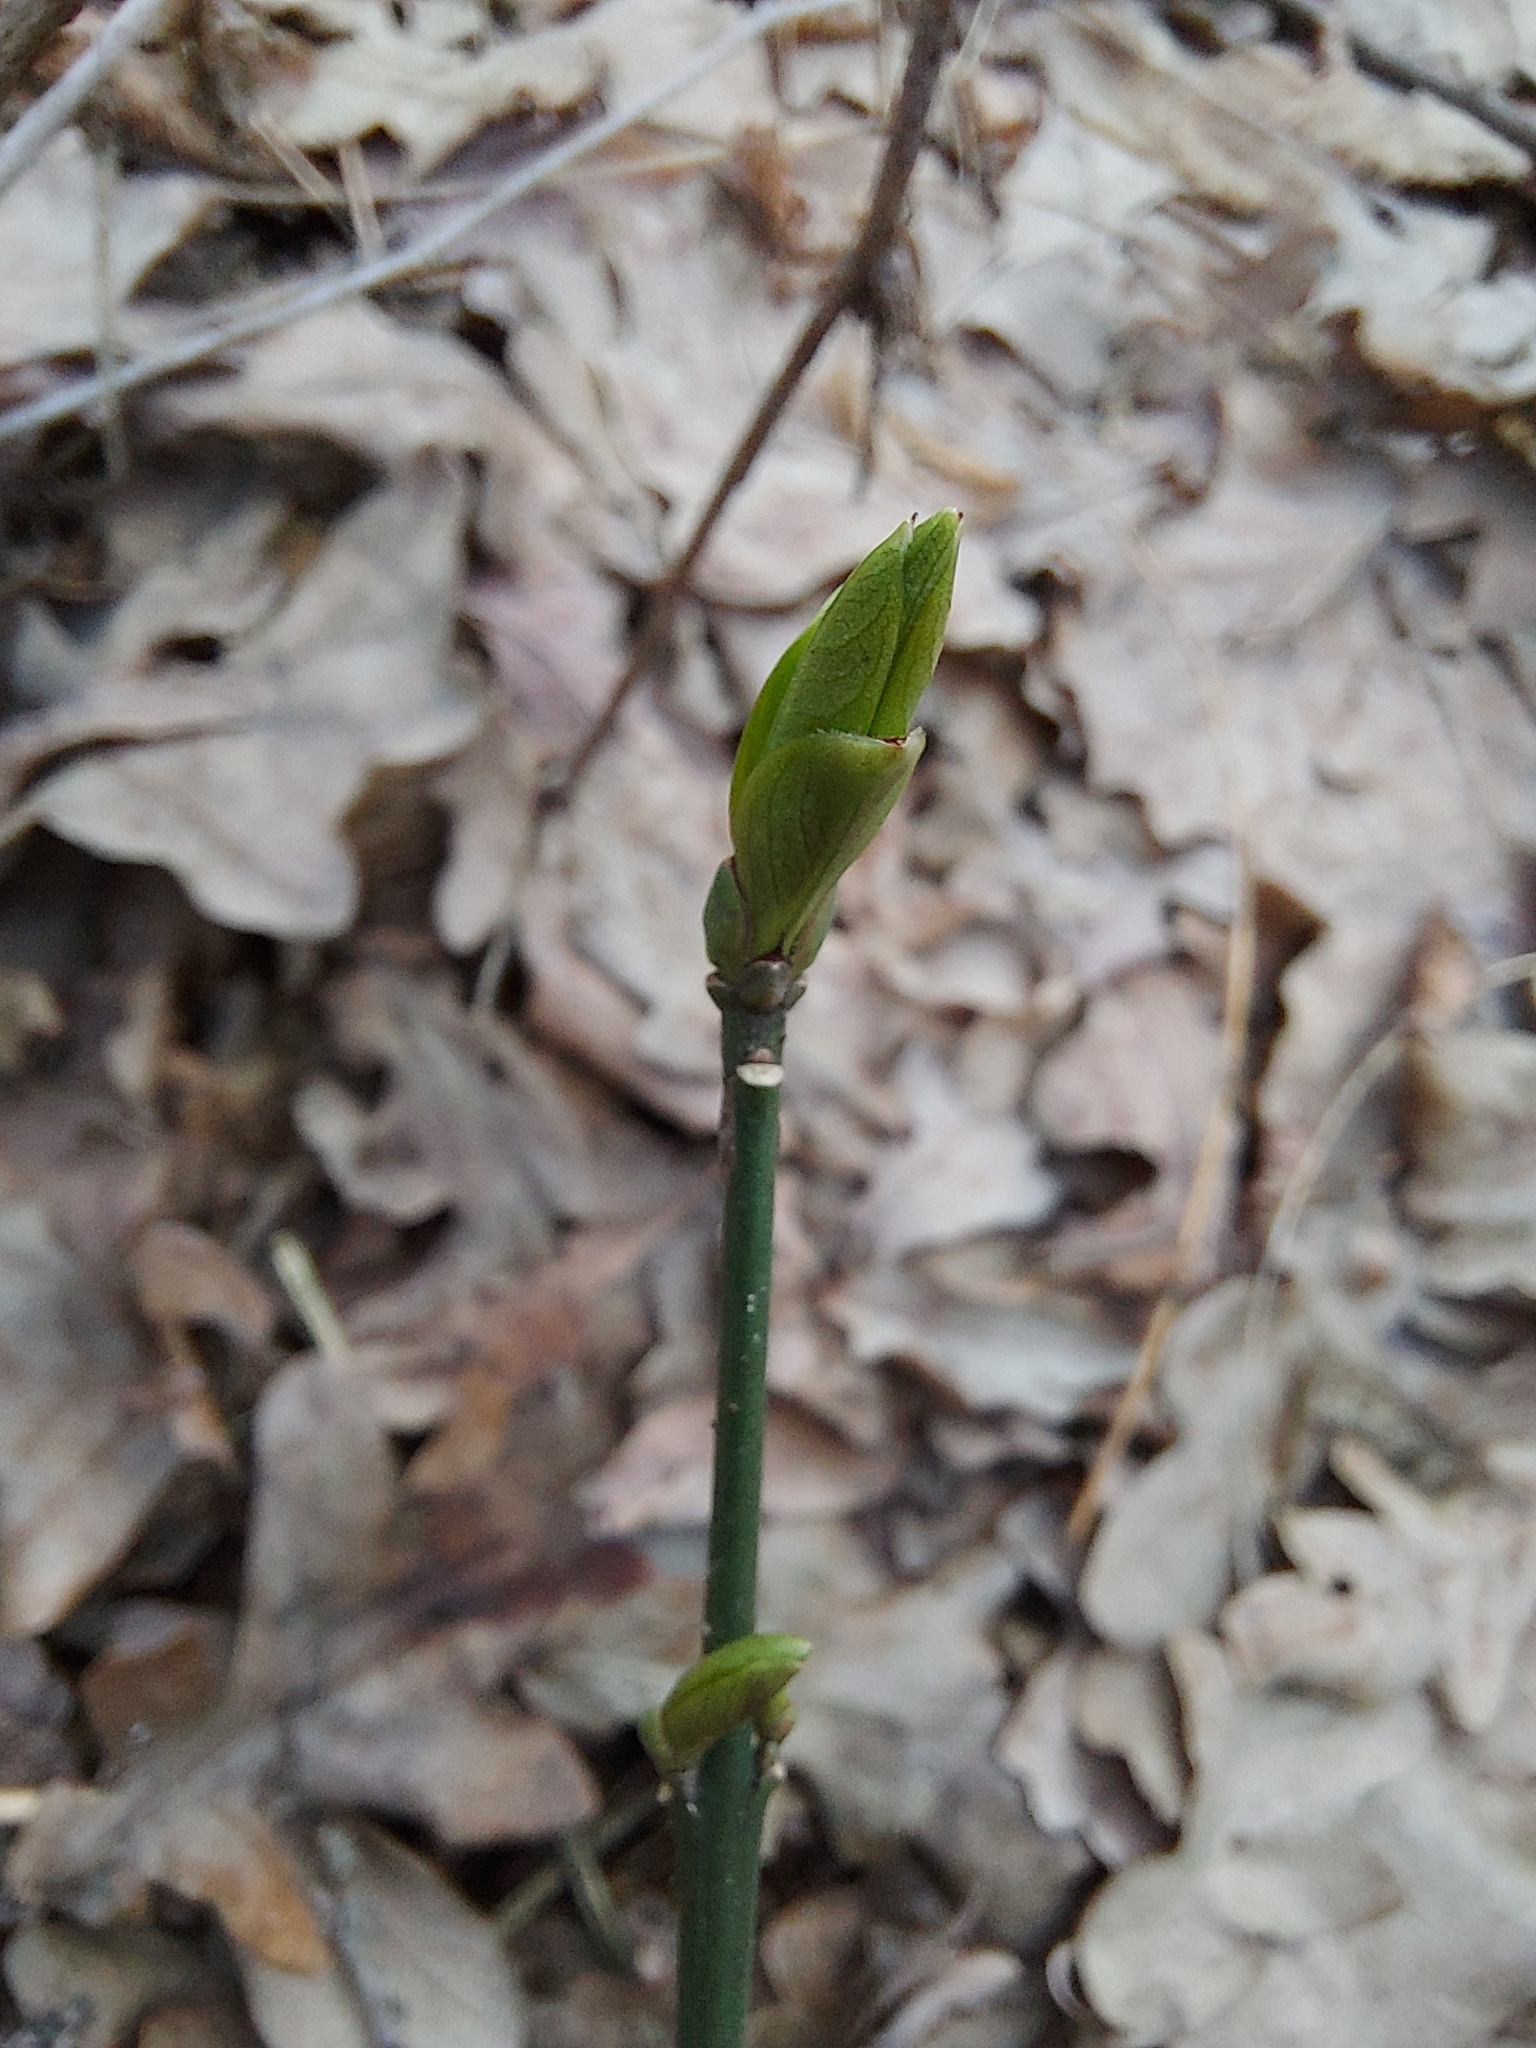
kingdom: Plantae
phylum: Tracheophyta
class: Magnoliopsida
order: Celastrales
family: Celastraceae
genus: Euonymus
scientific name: Euonymus europaeus
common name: Spindle
